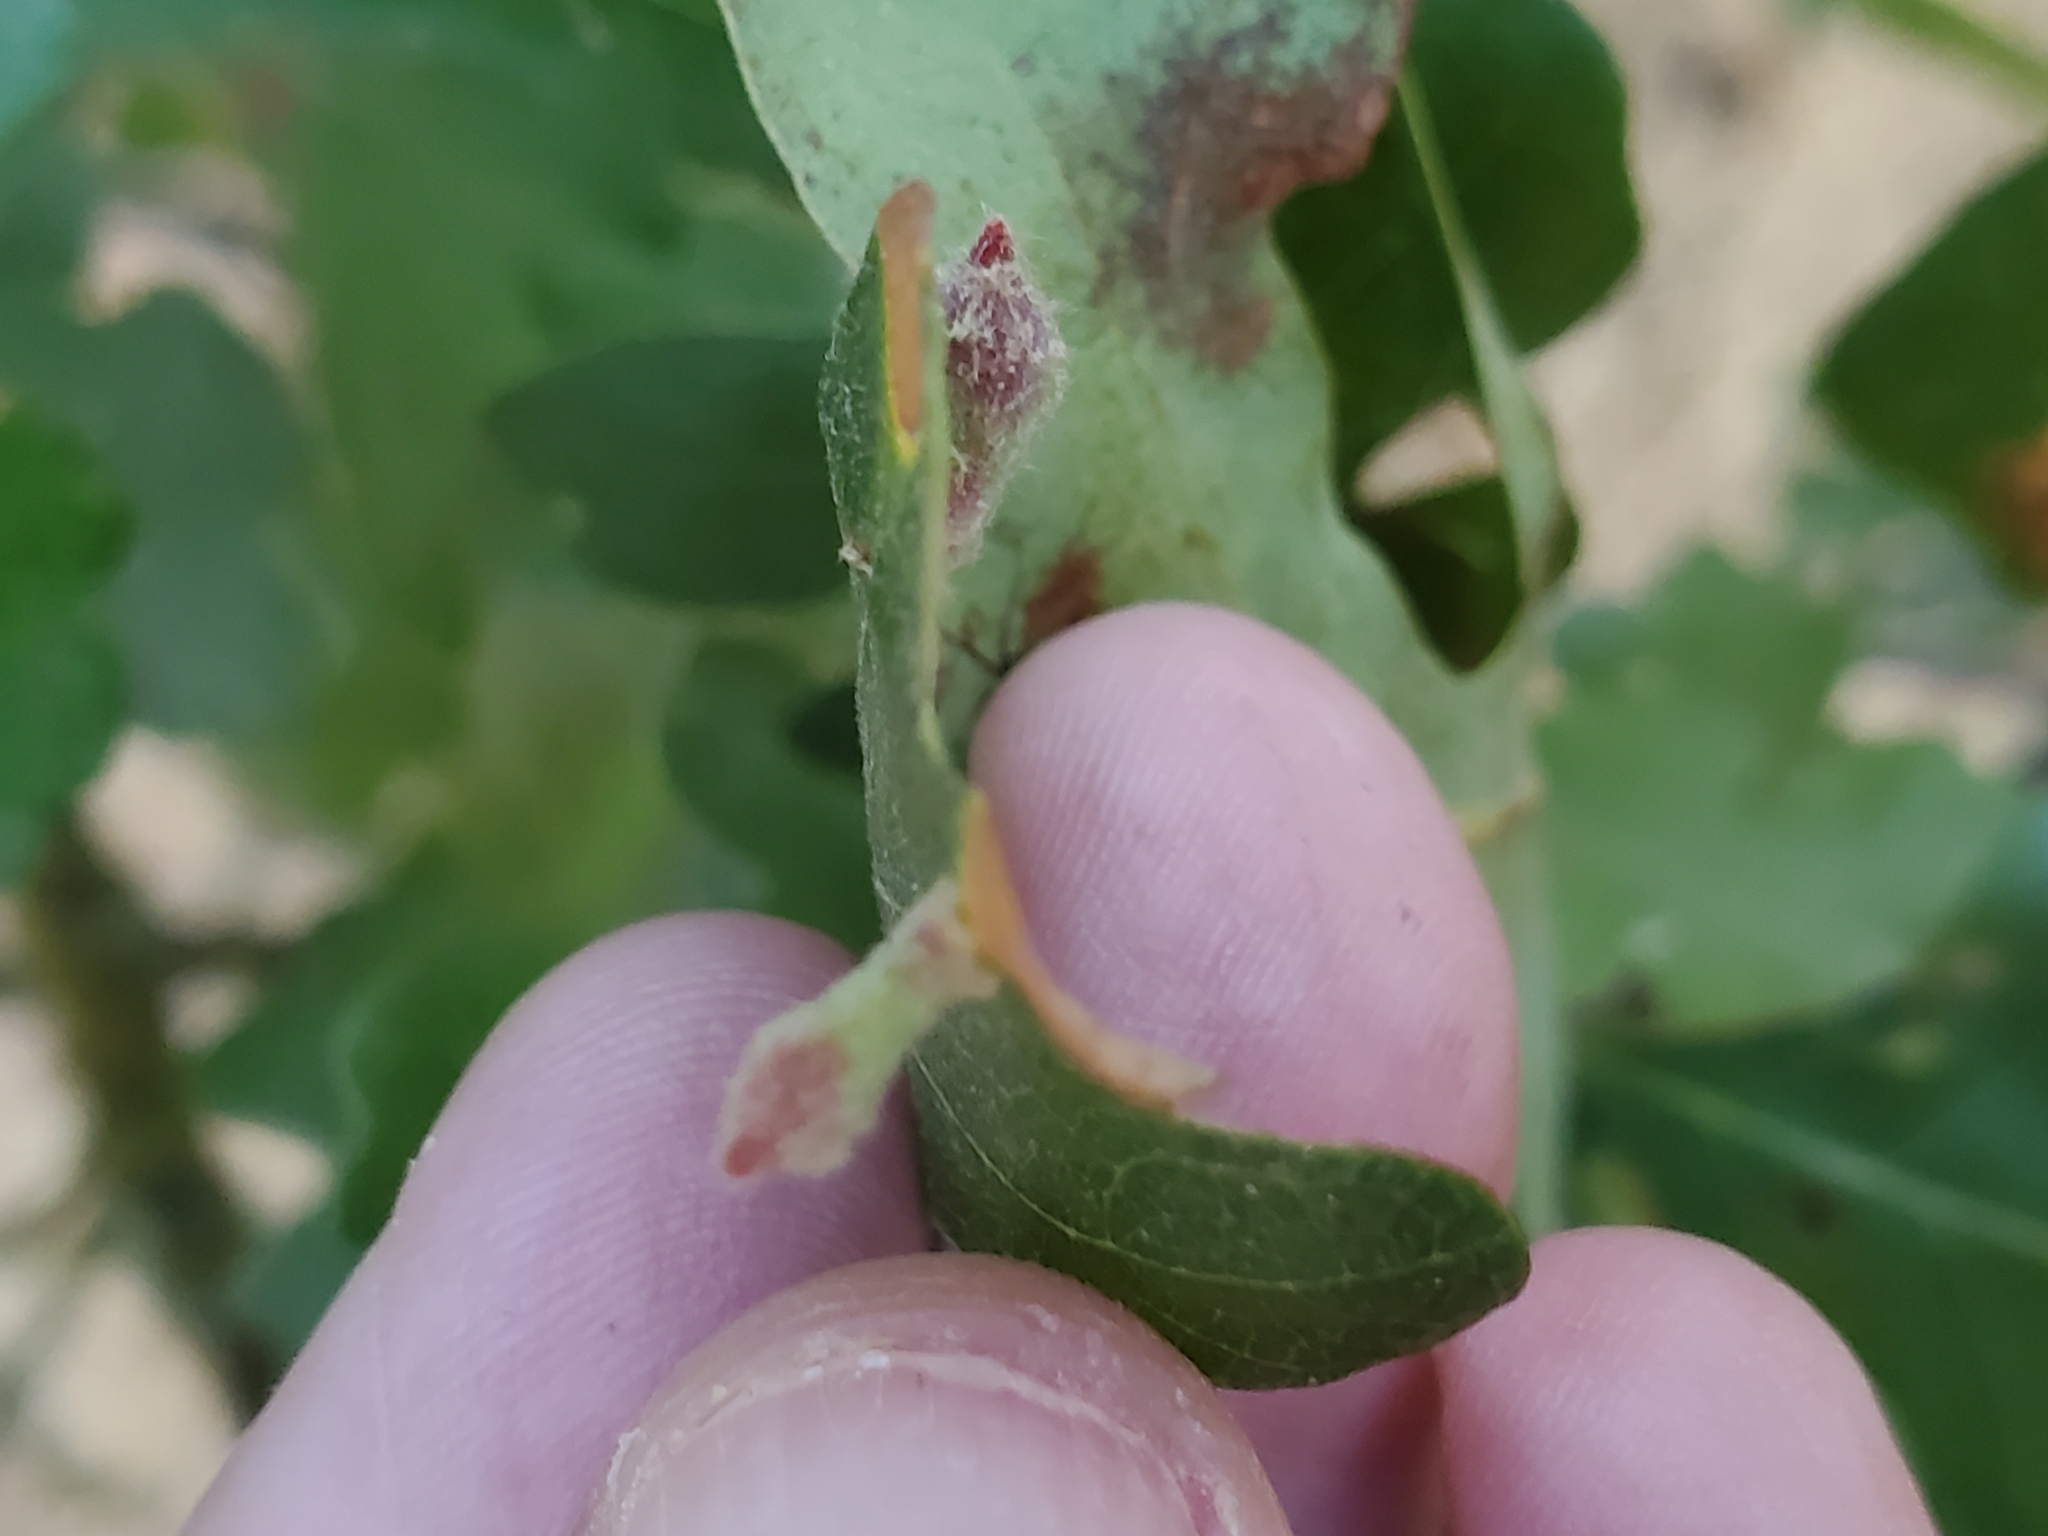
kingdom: Animalia
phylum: Arthropoda
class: Insecta
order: Hymenoptera
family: Cynipidae
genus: Atrusca
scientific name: Atrusca
